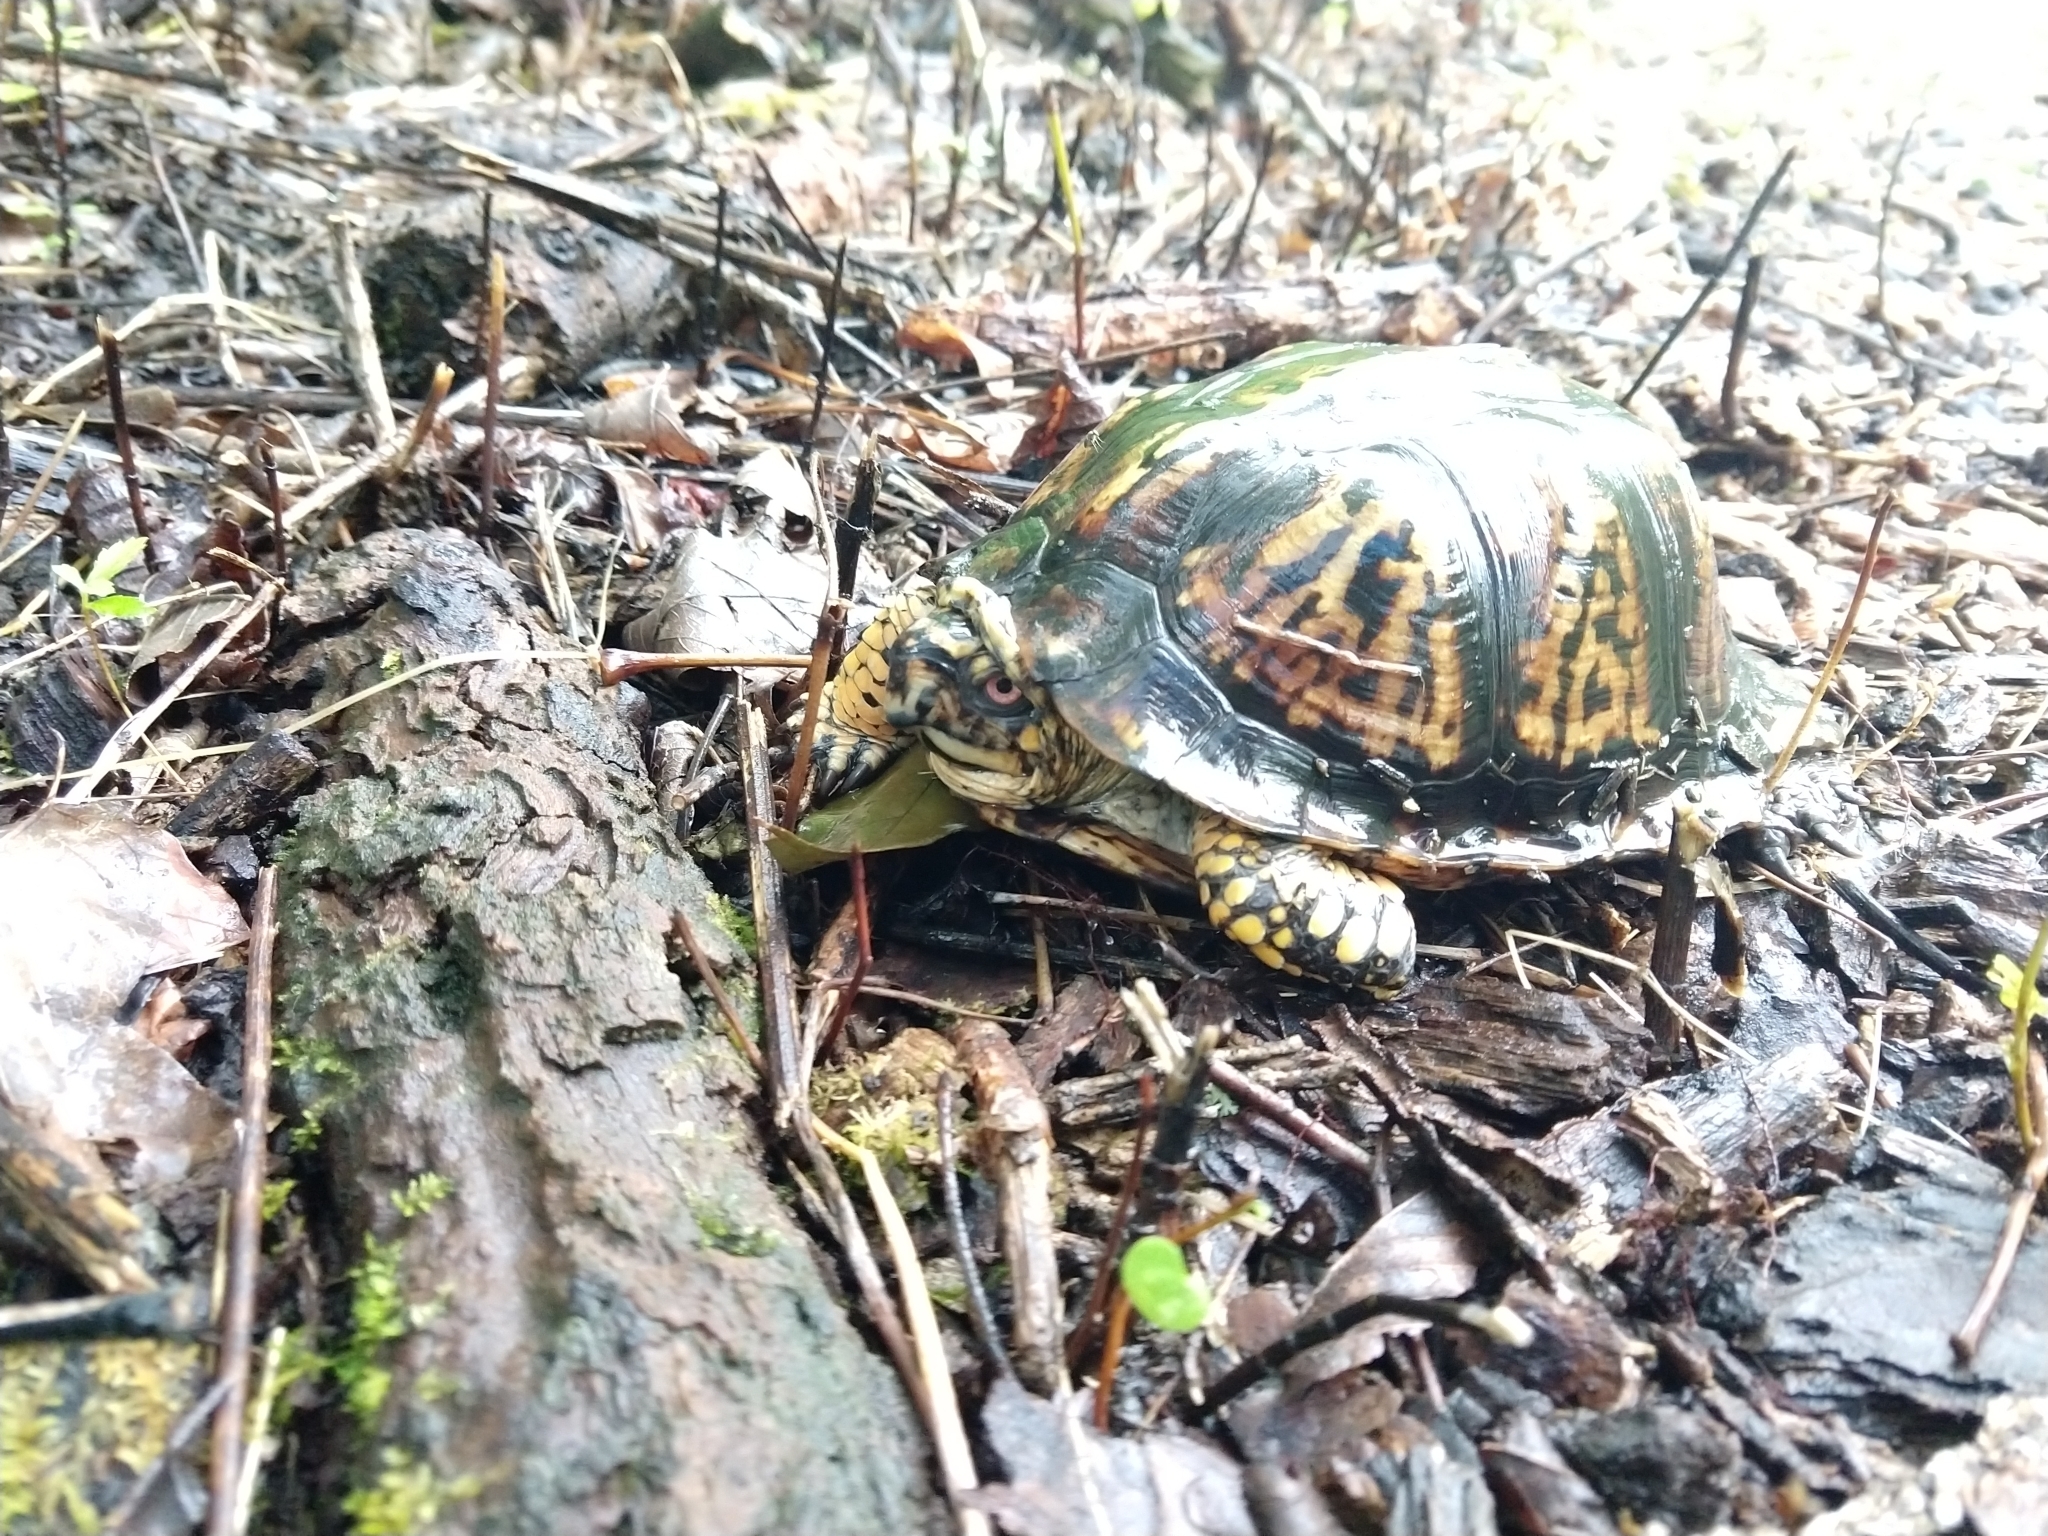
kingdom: Animalia
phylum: Chordata
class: Testudines
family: Emydidae
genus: Terrapene
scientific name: Terrapene carolina
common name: Common box turtle
